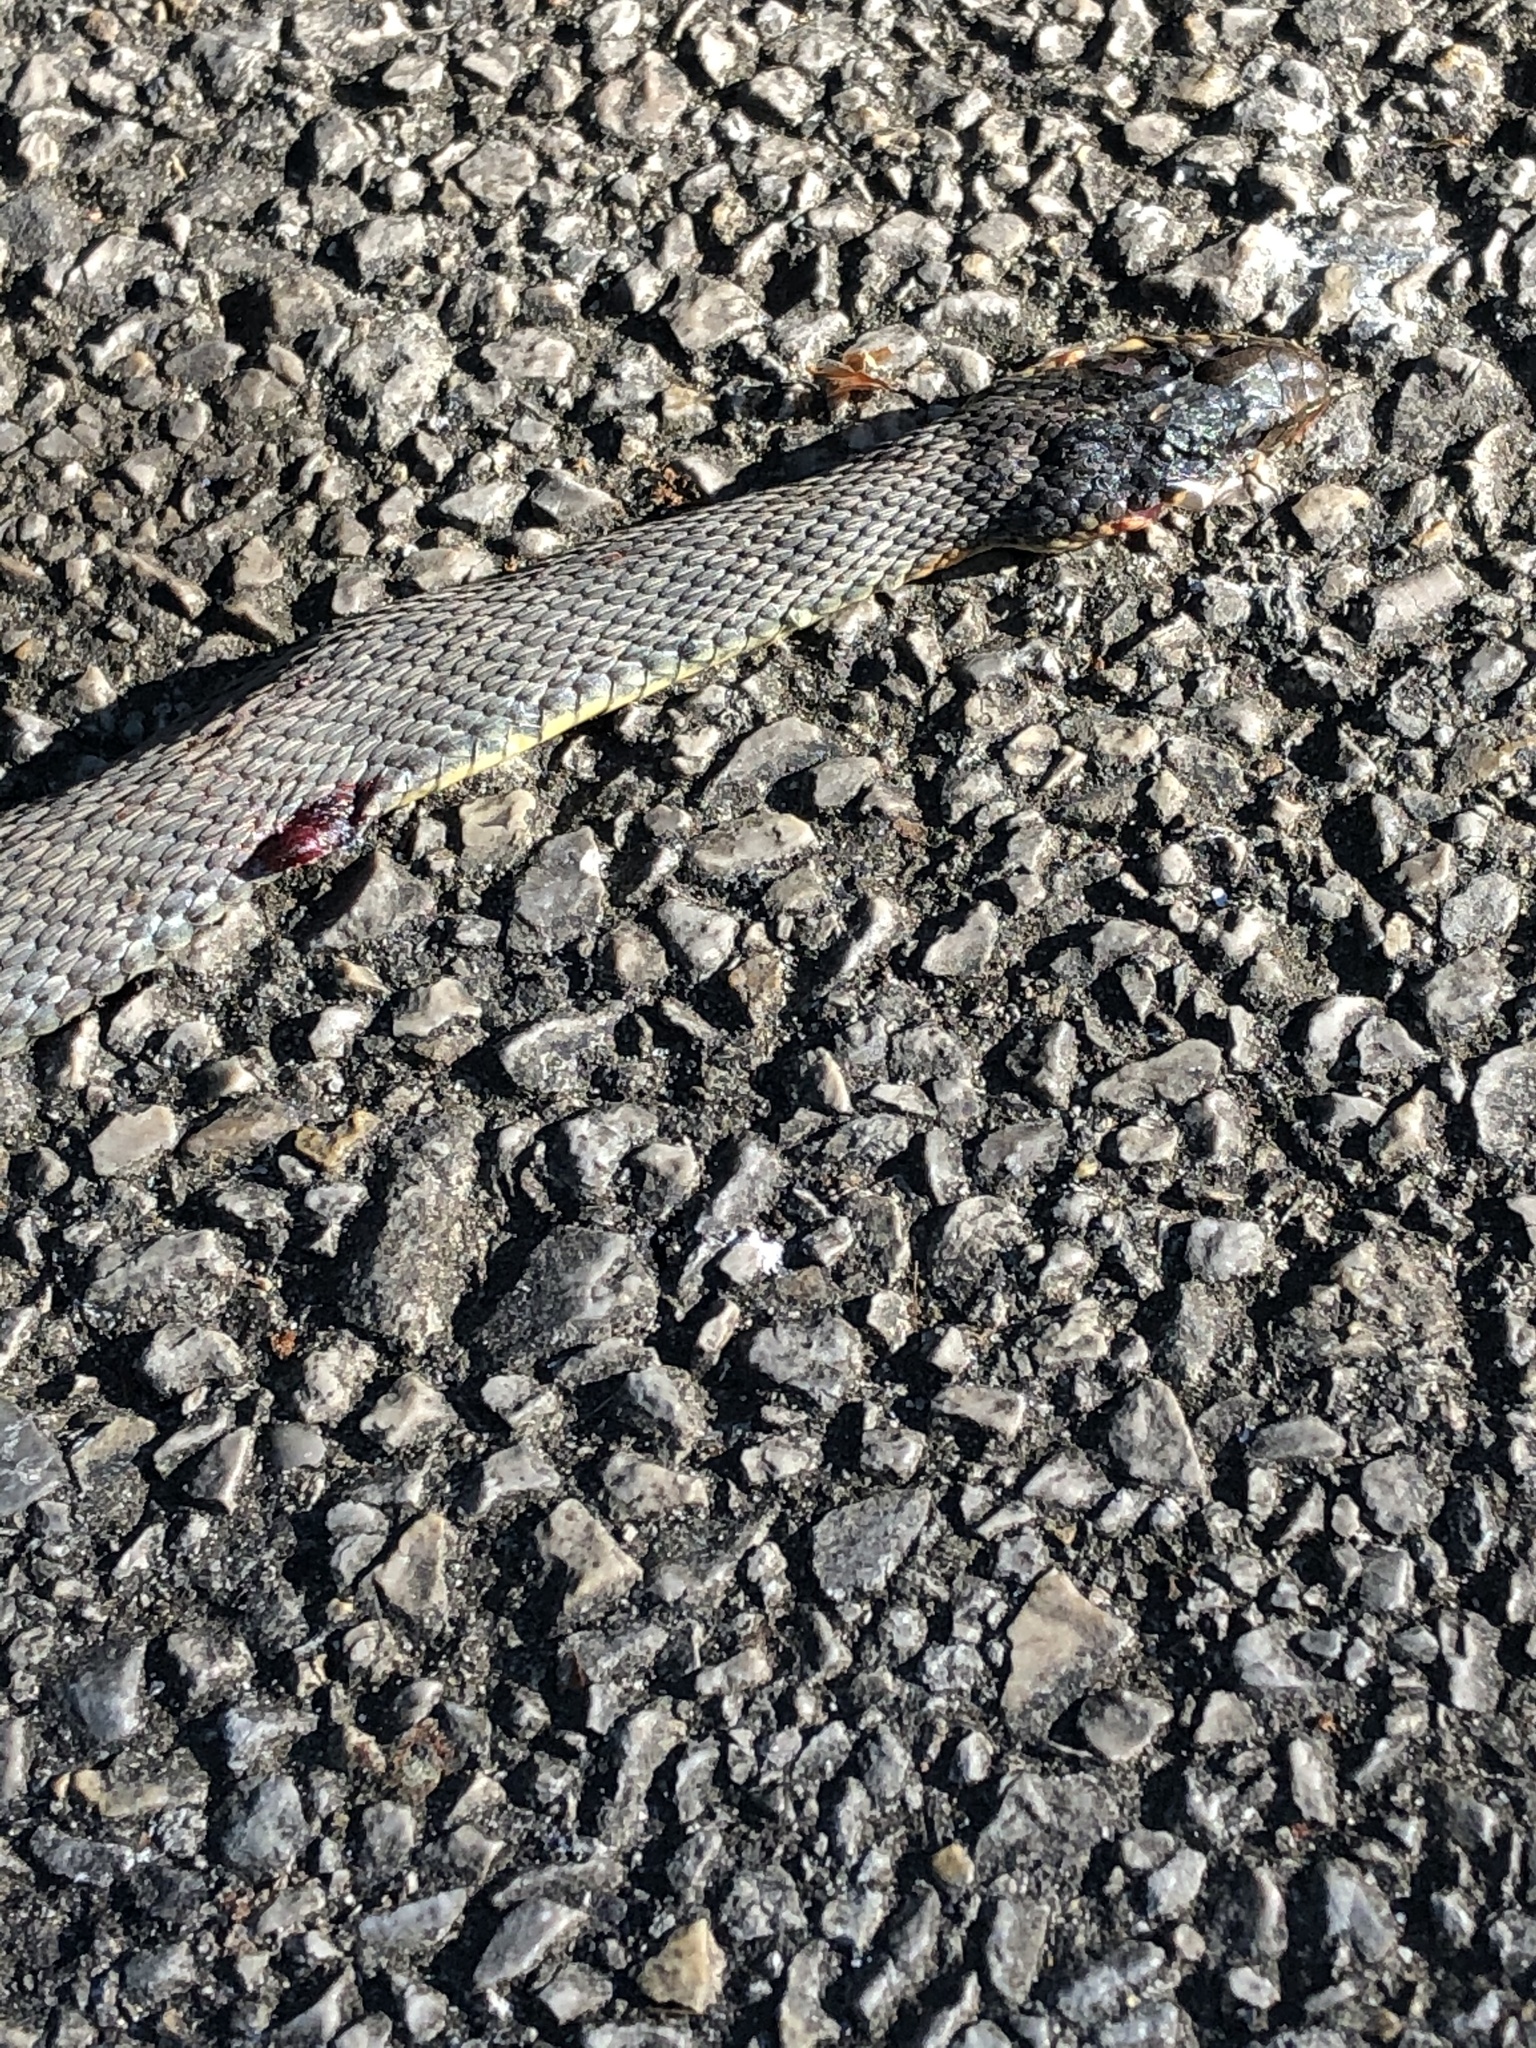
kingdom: Animalia
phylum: Chordata
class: Squamata
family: Colubridae
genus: Nerodia
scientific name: Nerodia erythrogaster
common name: Plainbelly water snake
